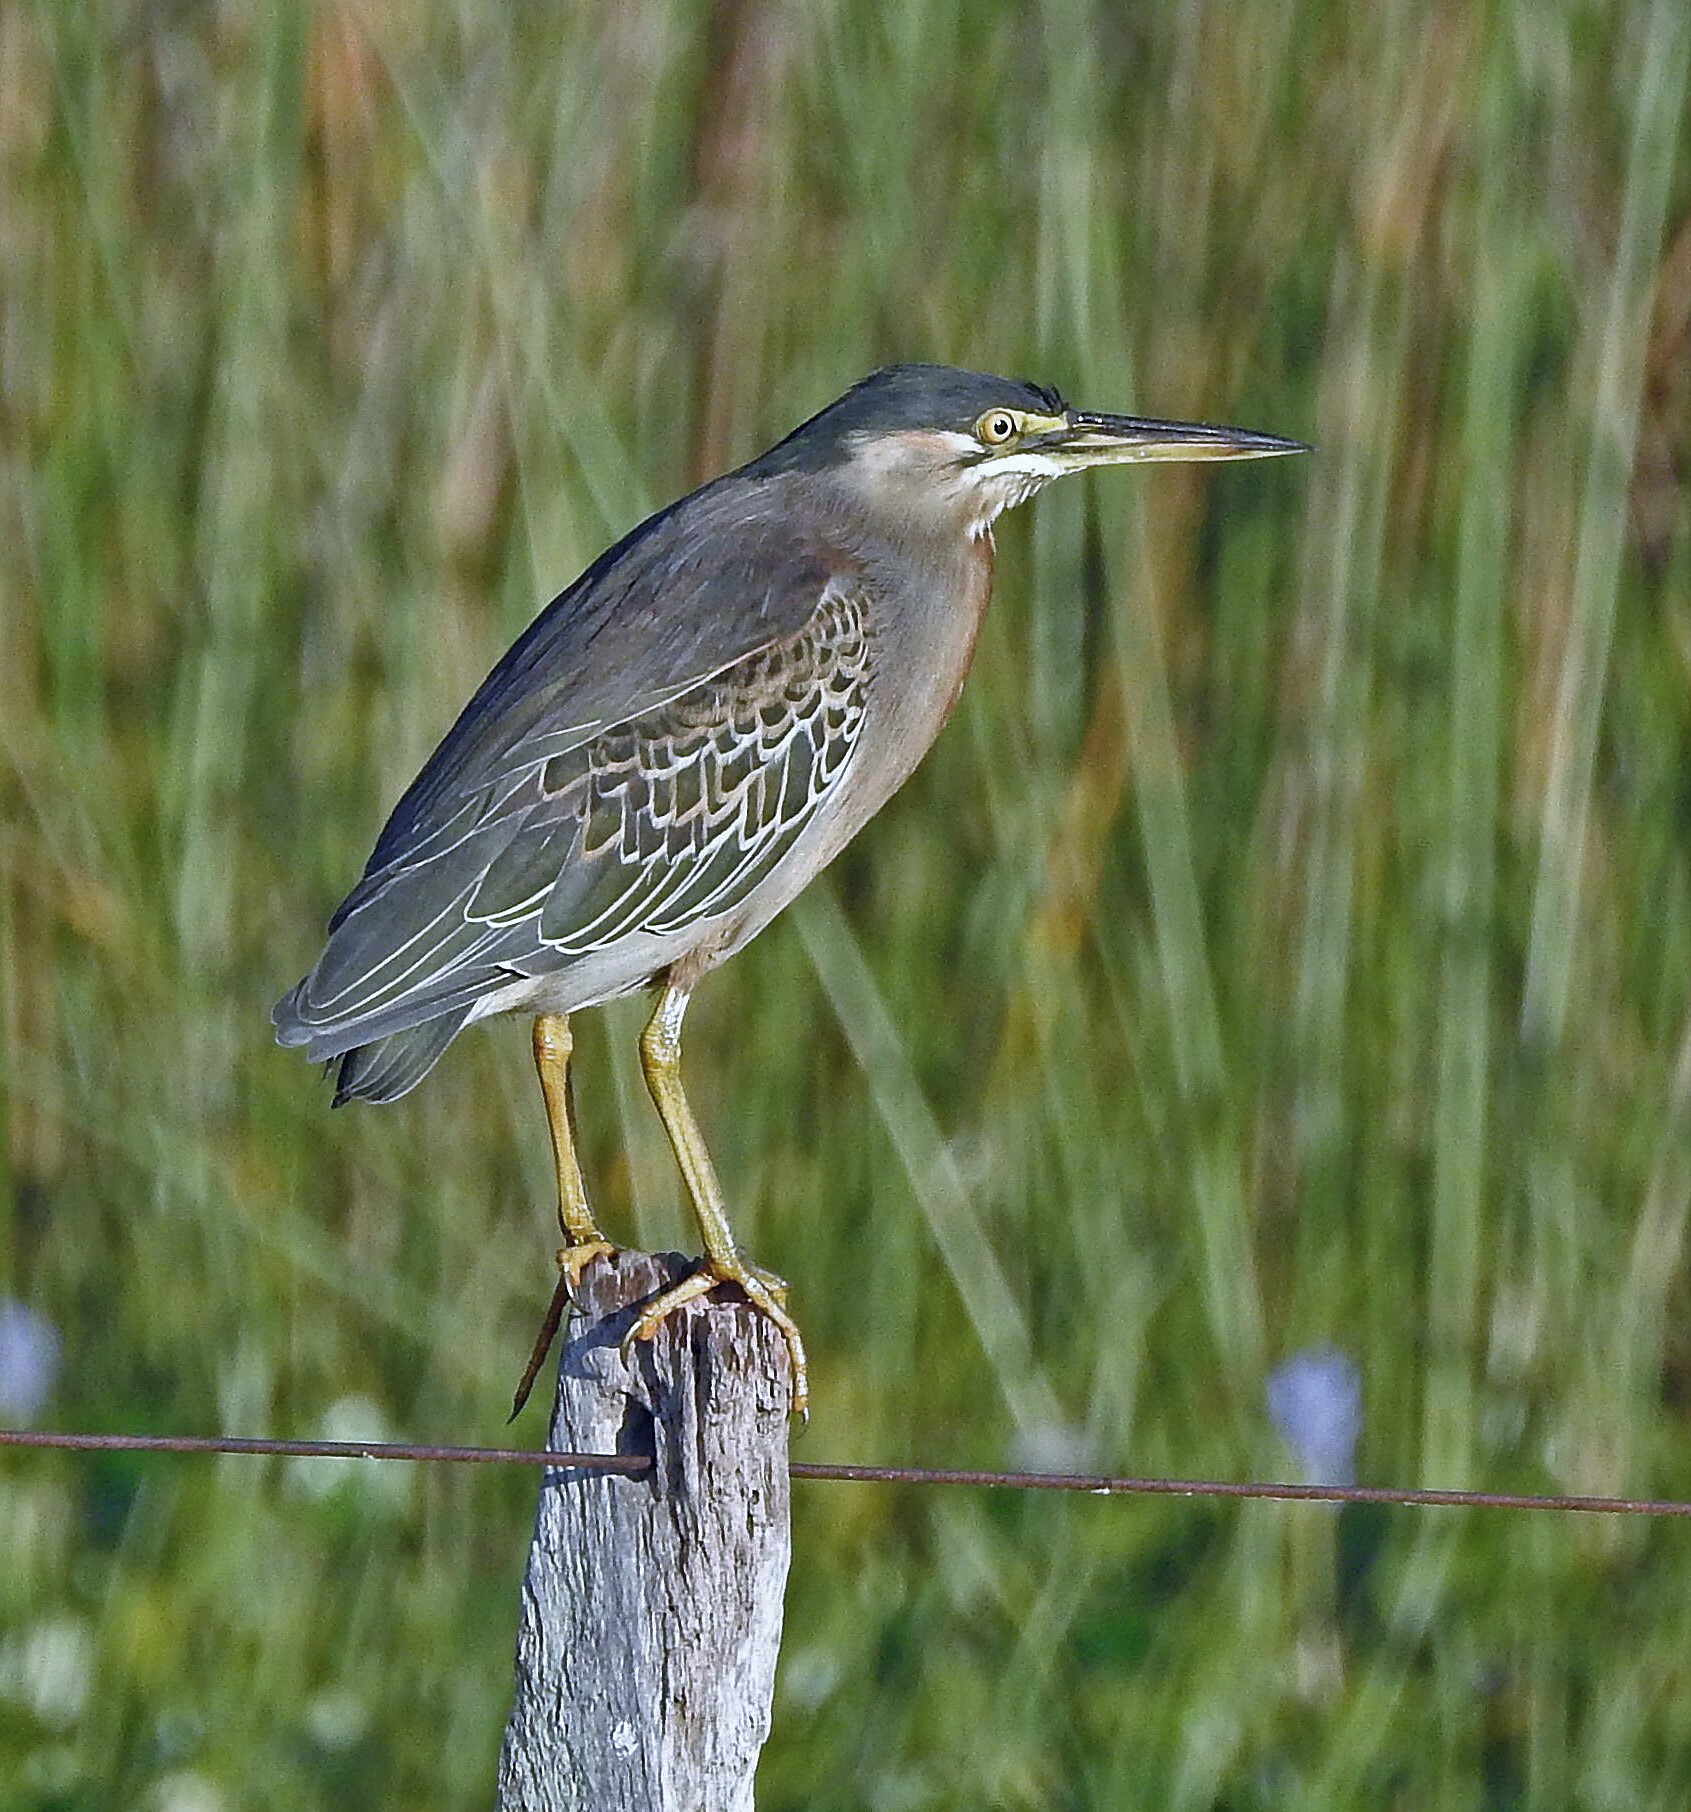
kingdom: Animalia
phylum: Chordata
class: Aves
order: Pelecaniformes
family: Ardeidae
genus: Butorides
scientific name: Butorides striata
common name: Striated heron
